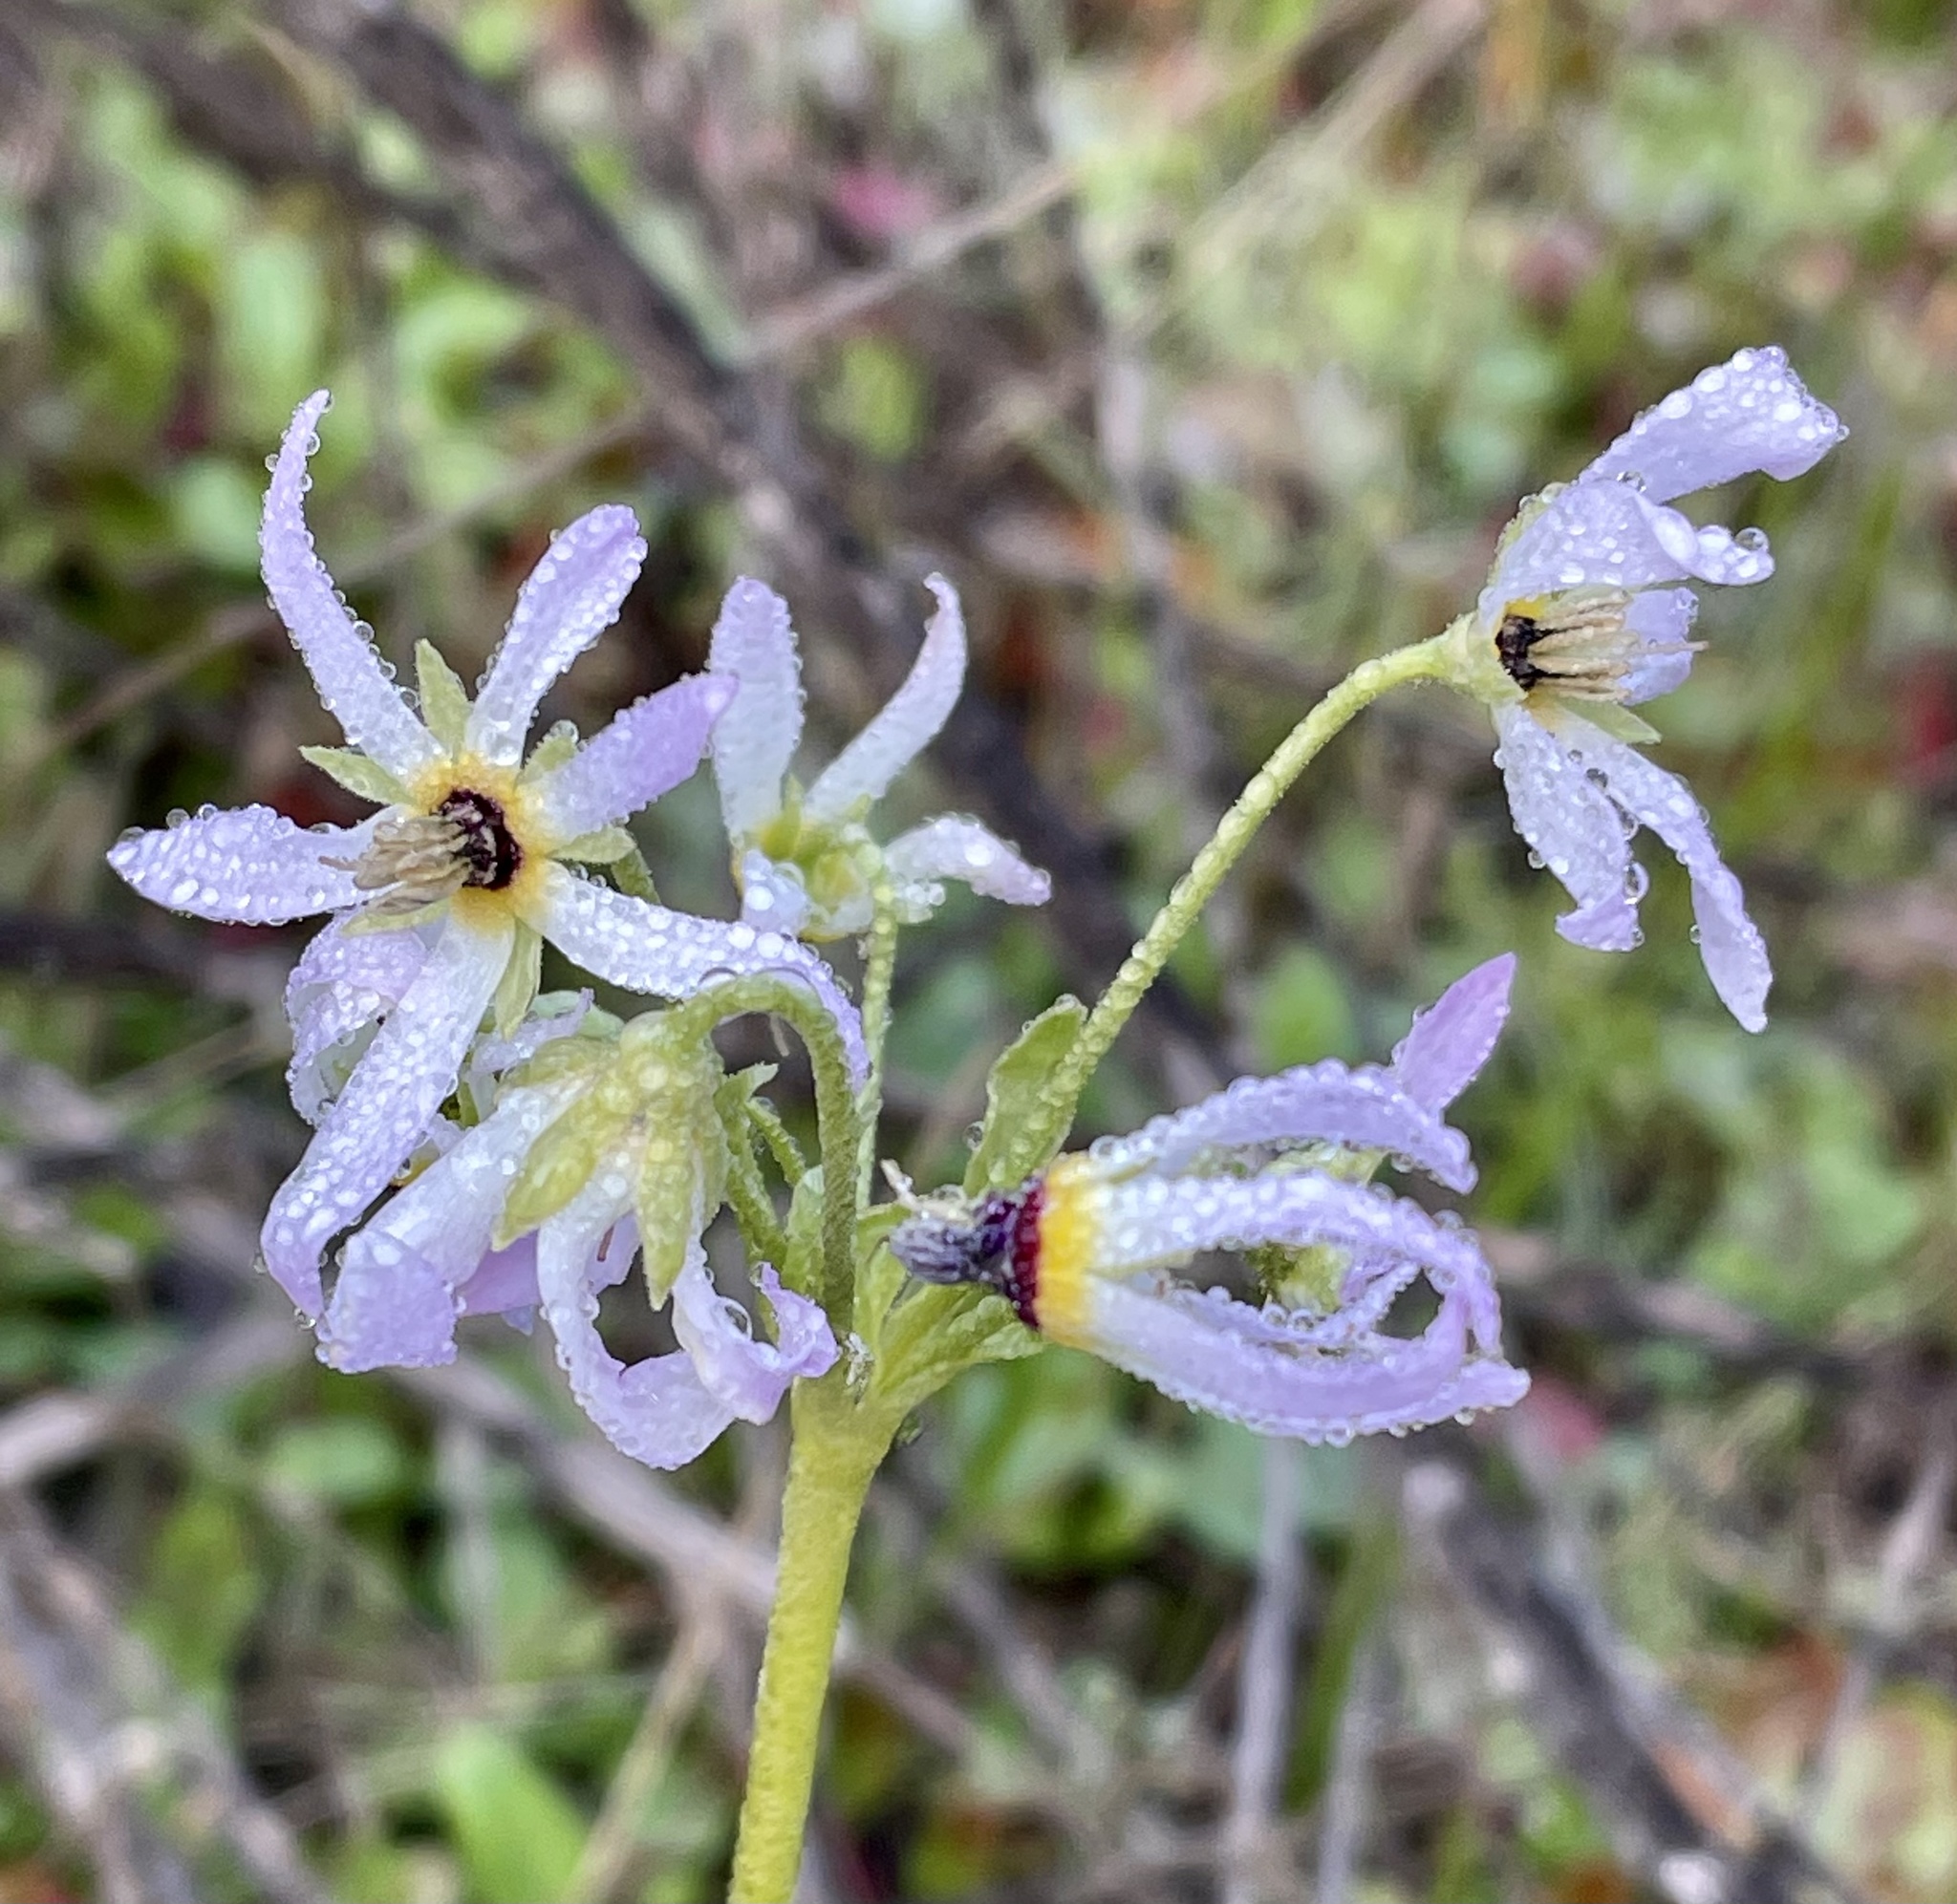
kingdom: Plantae
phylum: Tracheophyta
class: Magnoliopsida
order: Ericales
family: Primulaceae
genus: Dodecatheon
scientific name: Dodecatheon clevelandii
